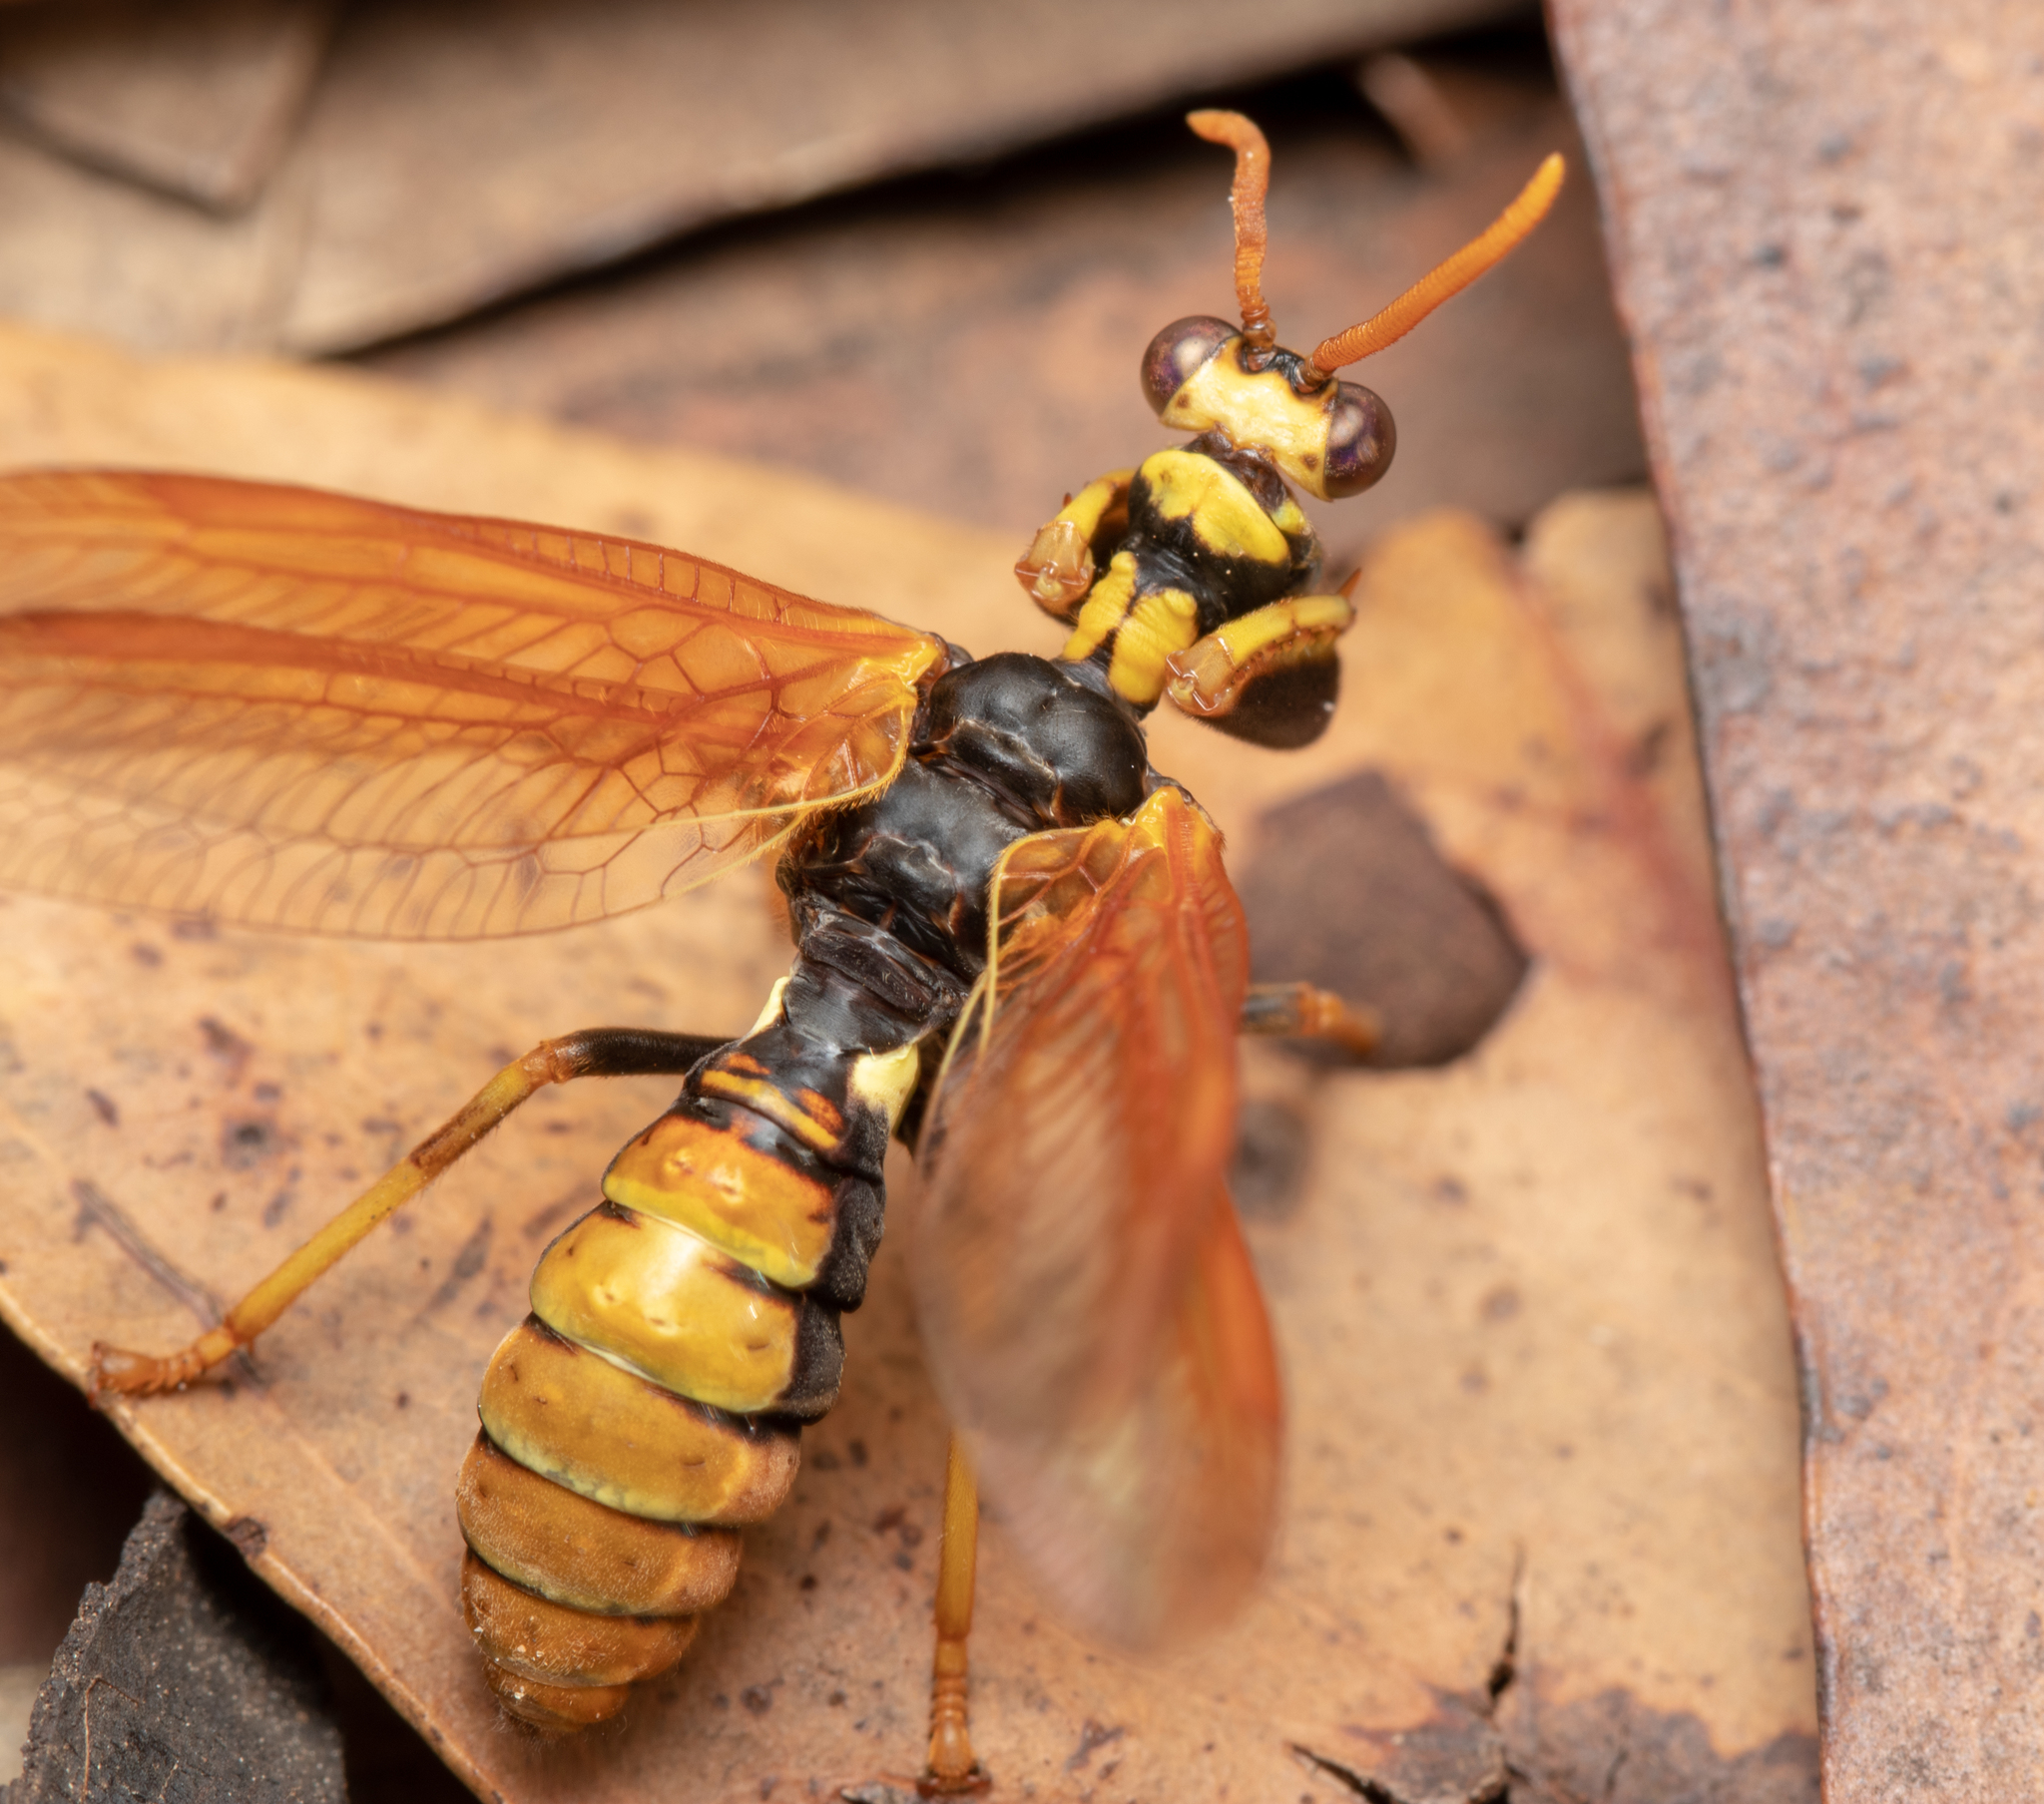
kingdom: Animalia
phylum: Arthropoda
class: Insecta
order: Neuroptera
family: Mantispidae
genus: Euclimacia
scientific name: Euclimacia torquata
